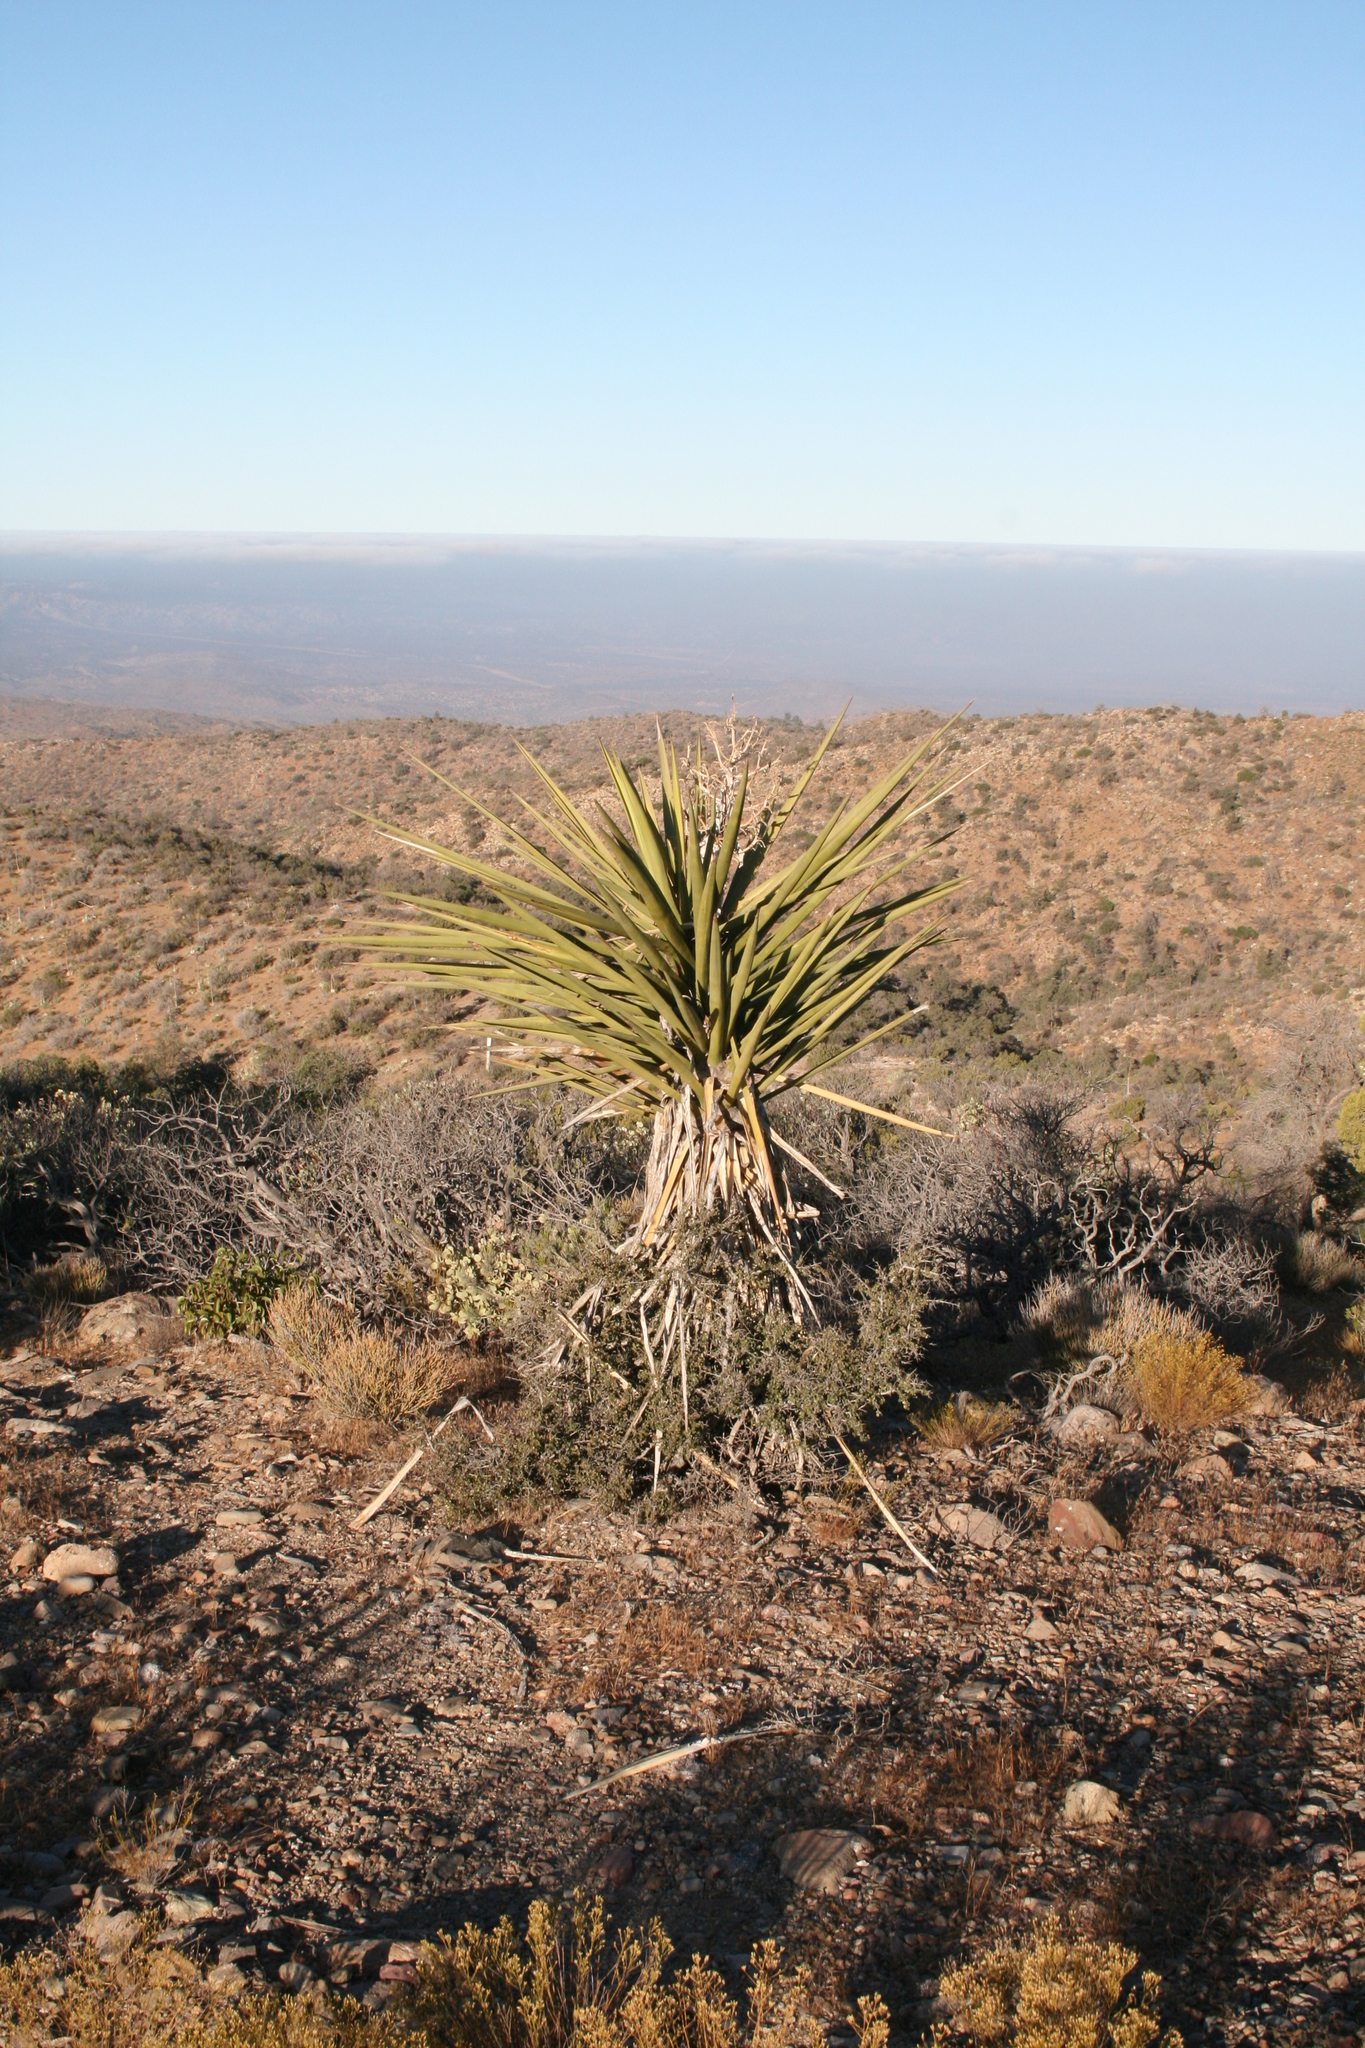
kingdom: Plantae
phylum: Tracheophyta
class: Liliopsida
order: Asparagales
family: Asparagaceae
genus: Yucca
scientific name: Yucca schidigera
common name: Mojave yucca
